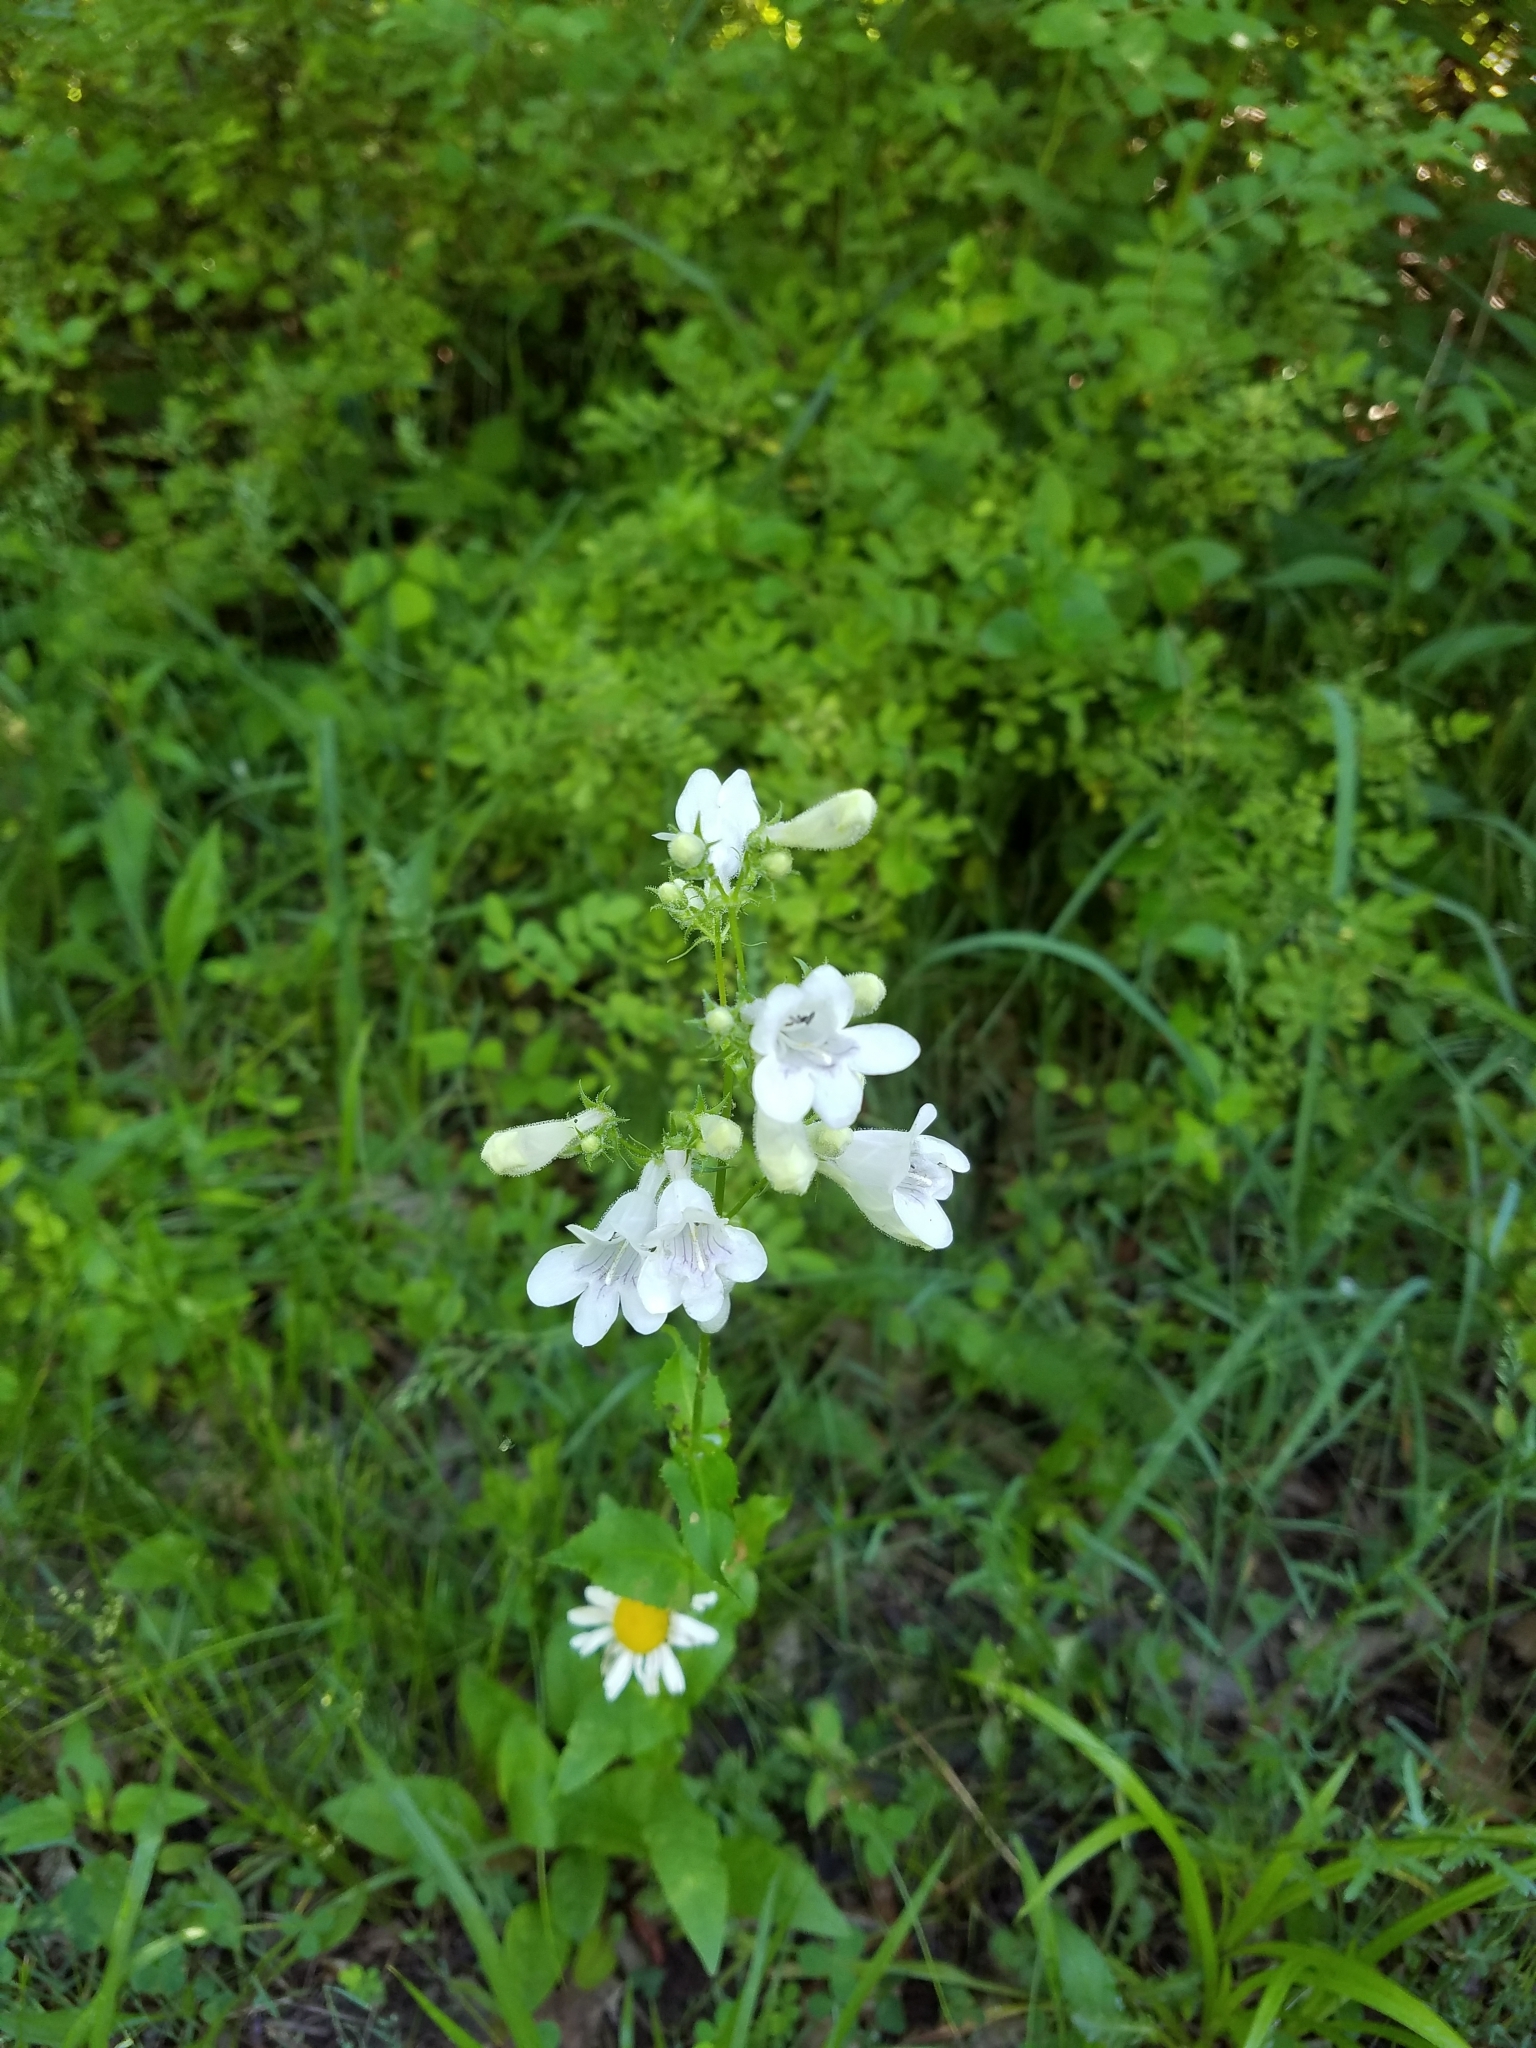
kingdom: Plantae
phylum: Tracheophyta
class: Magnoliopsida
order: Lamiales
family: Plantaginaceae
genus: Penstemon
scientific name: Penstemon digitalis
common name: Foxglove beardtongue
